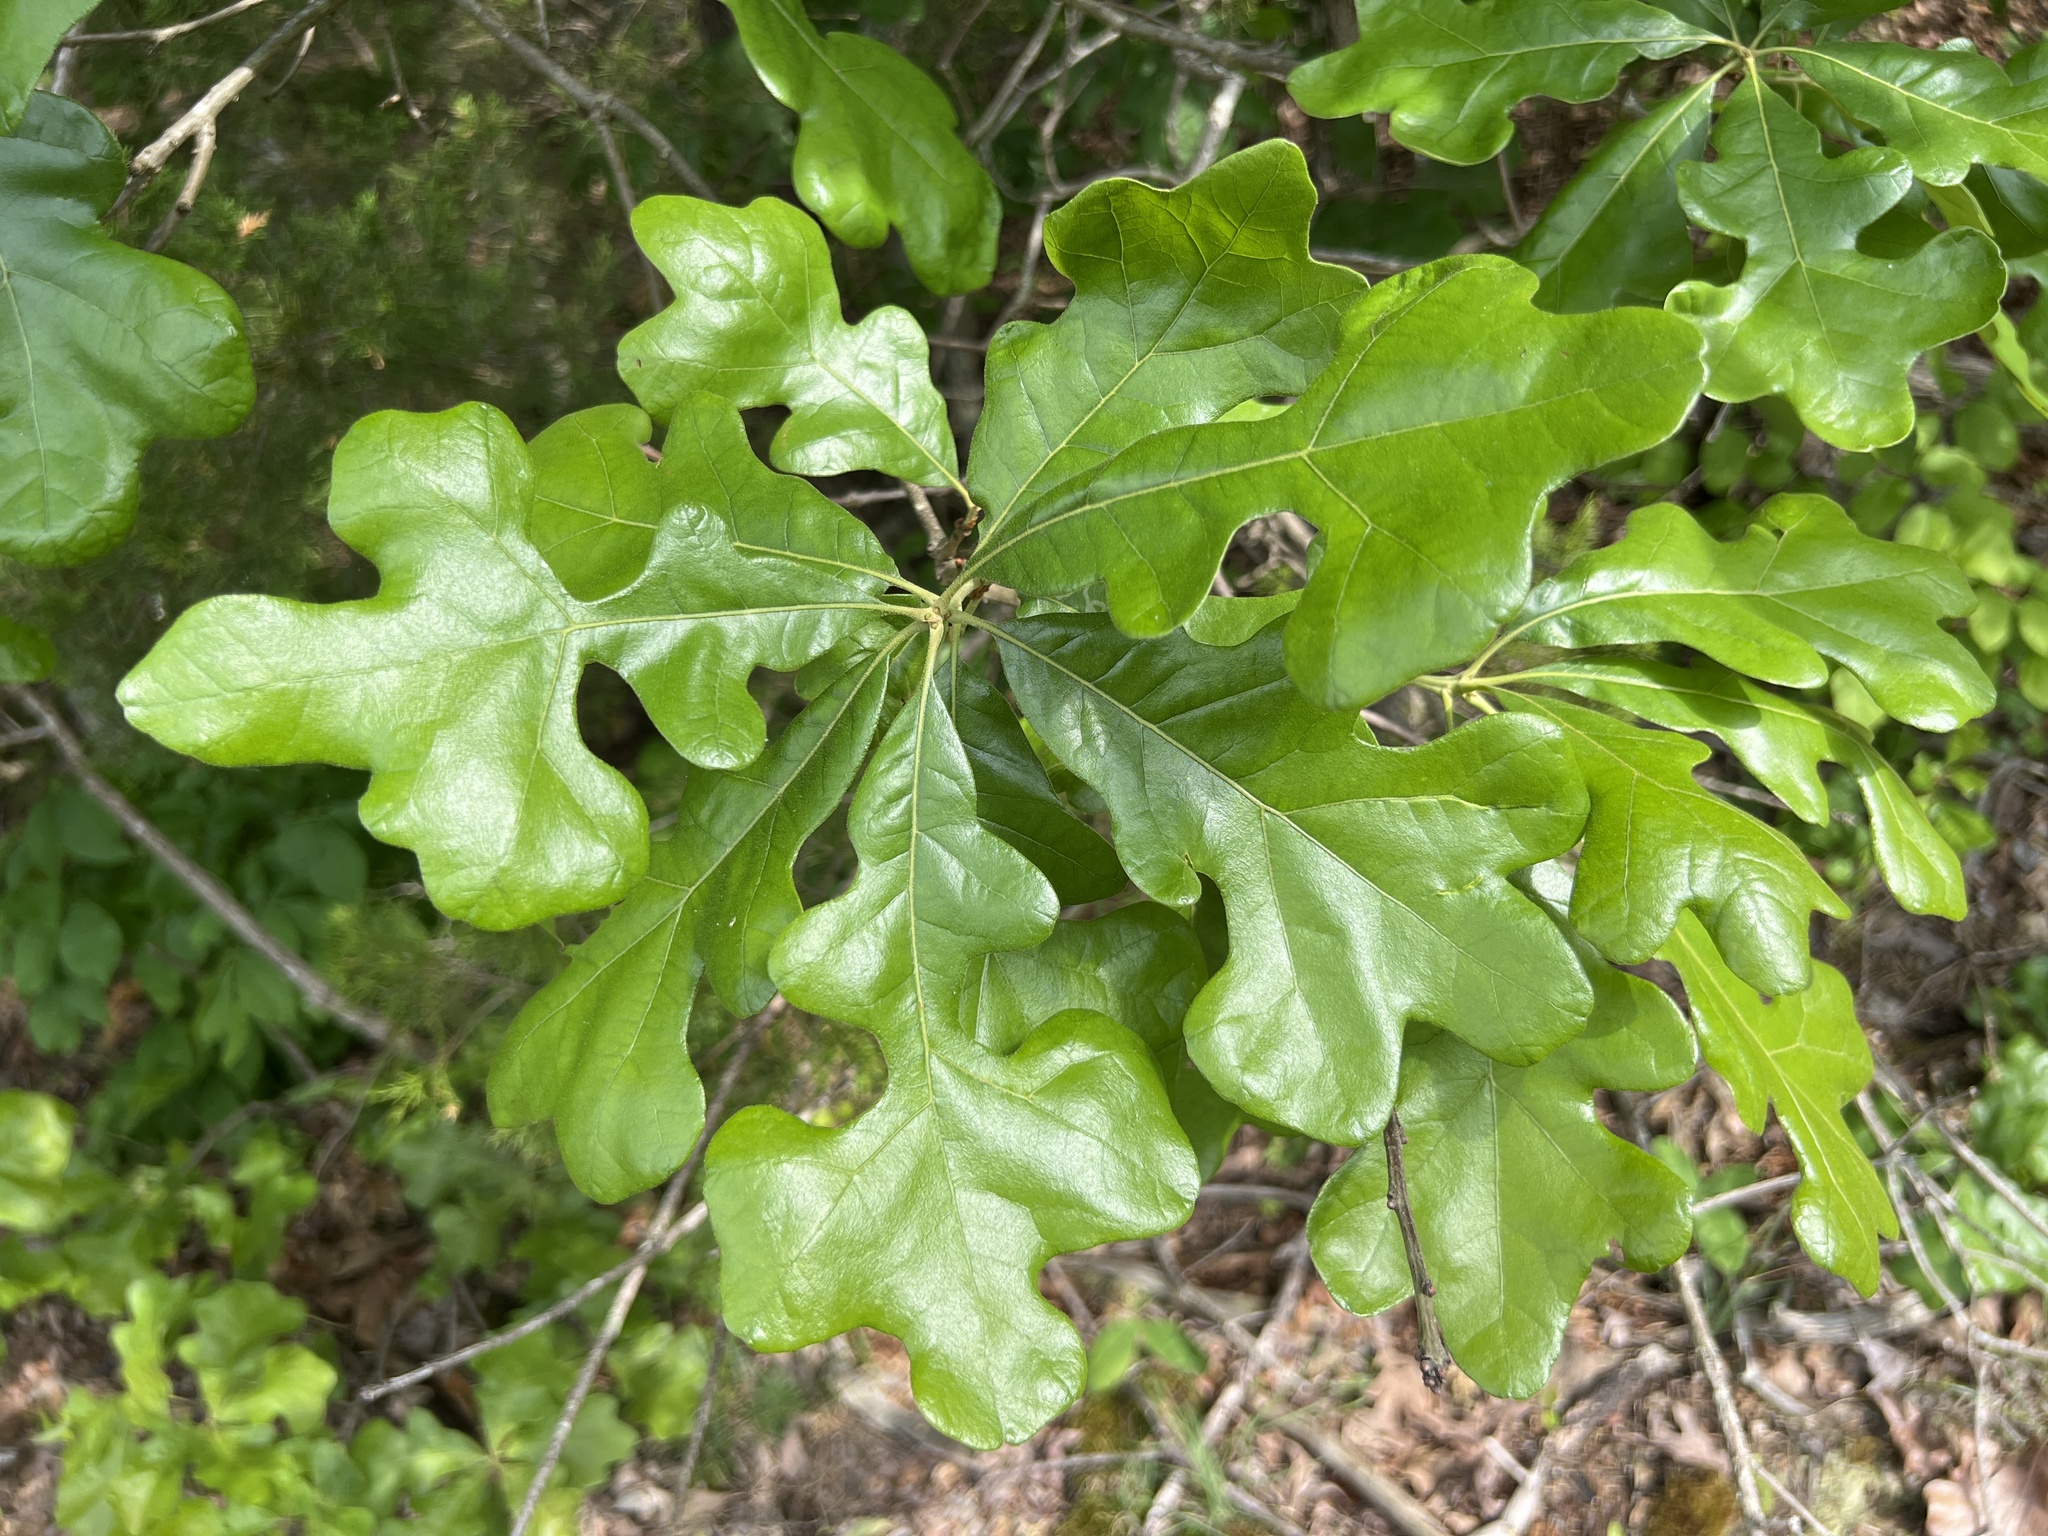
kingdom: Plantae
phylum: Tracheophyta
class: Magnoliopsida
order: Fagales
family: Fagaceae
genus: Quercus
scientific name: Quercus stellata
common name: Post oak
